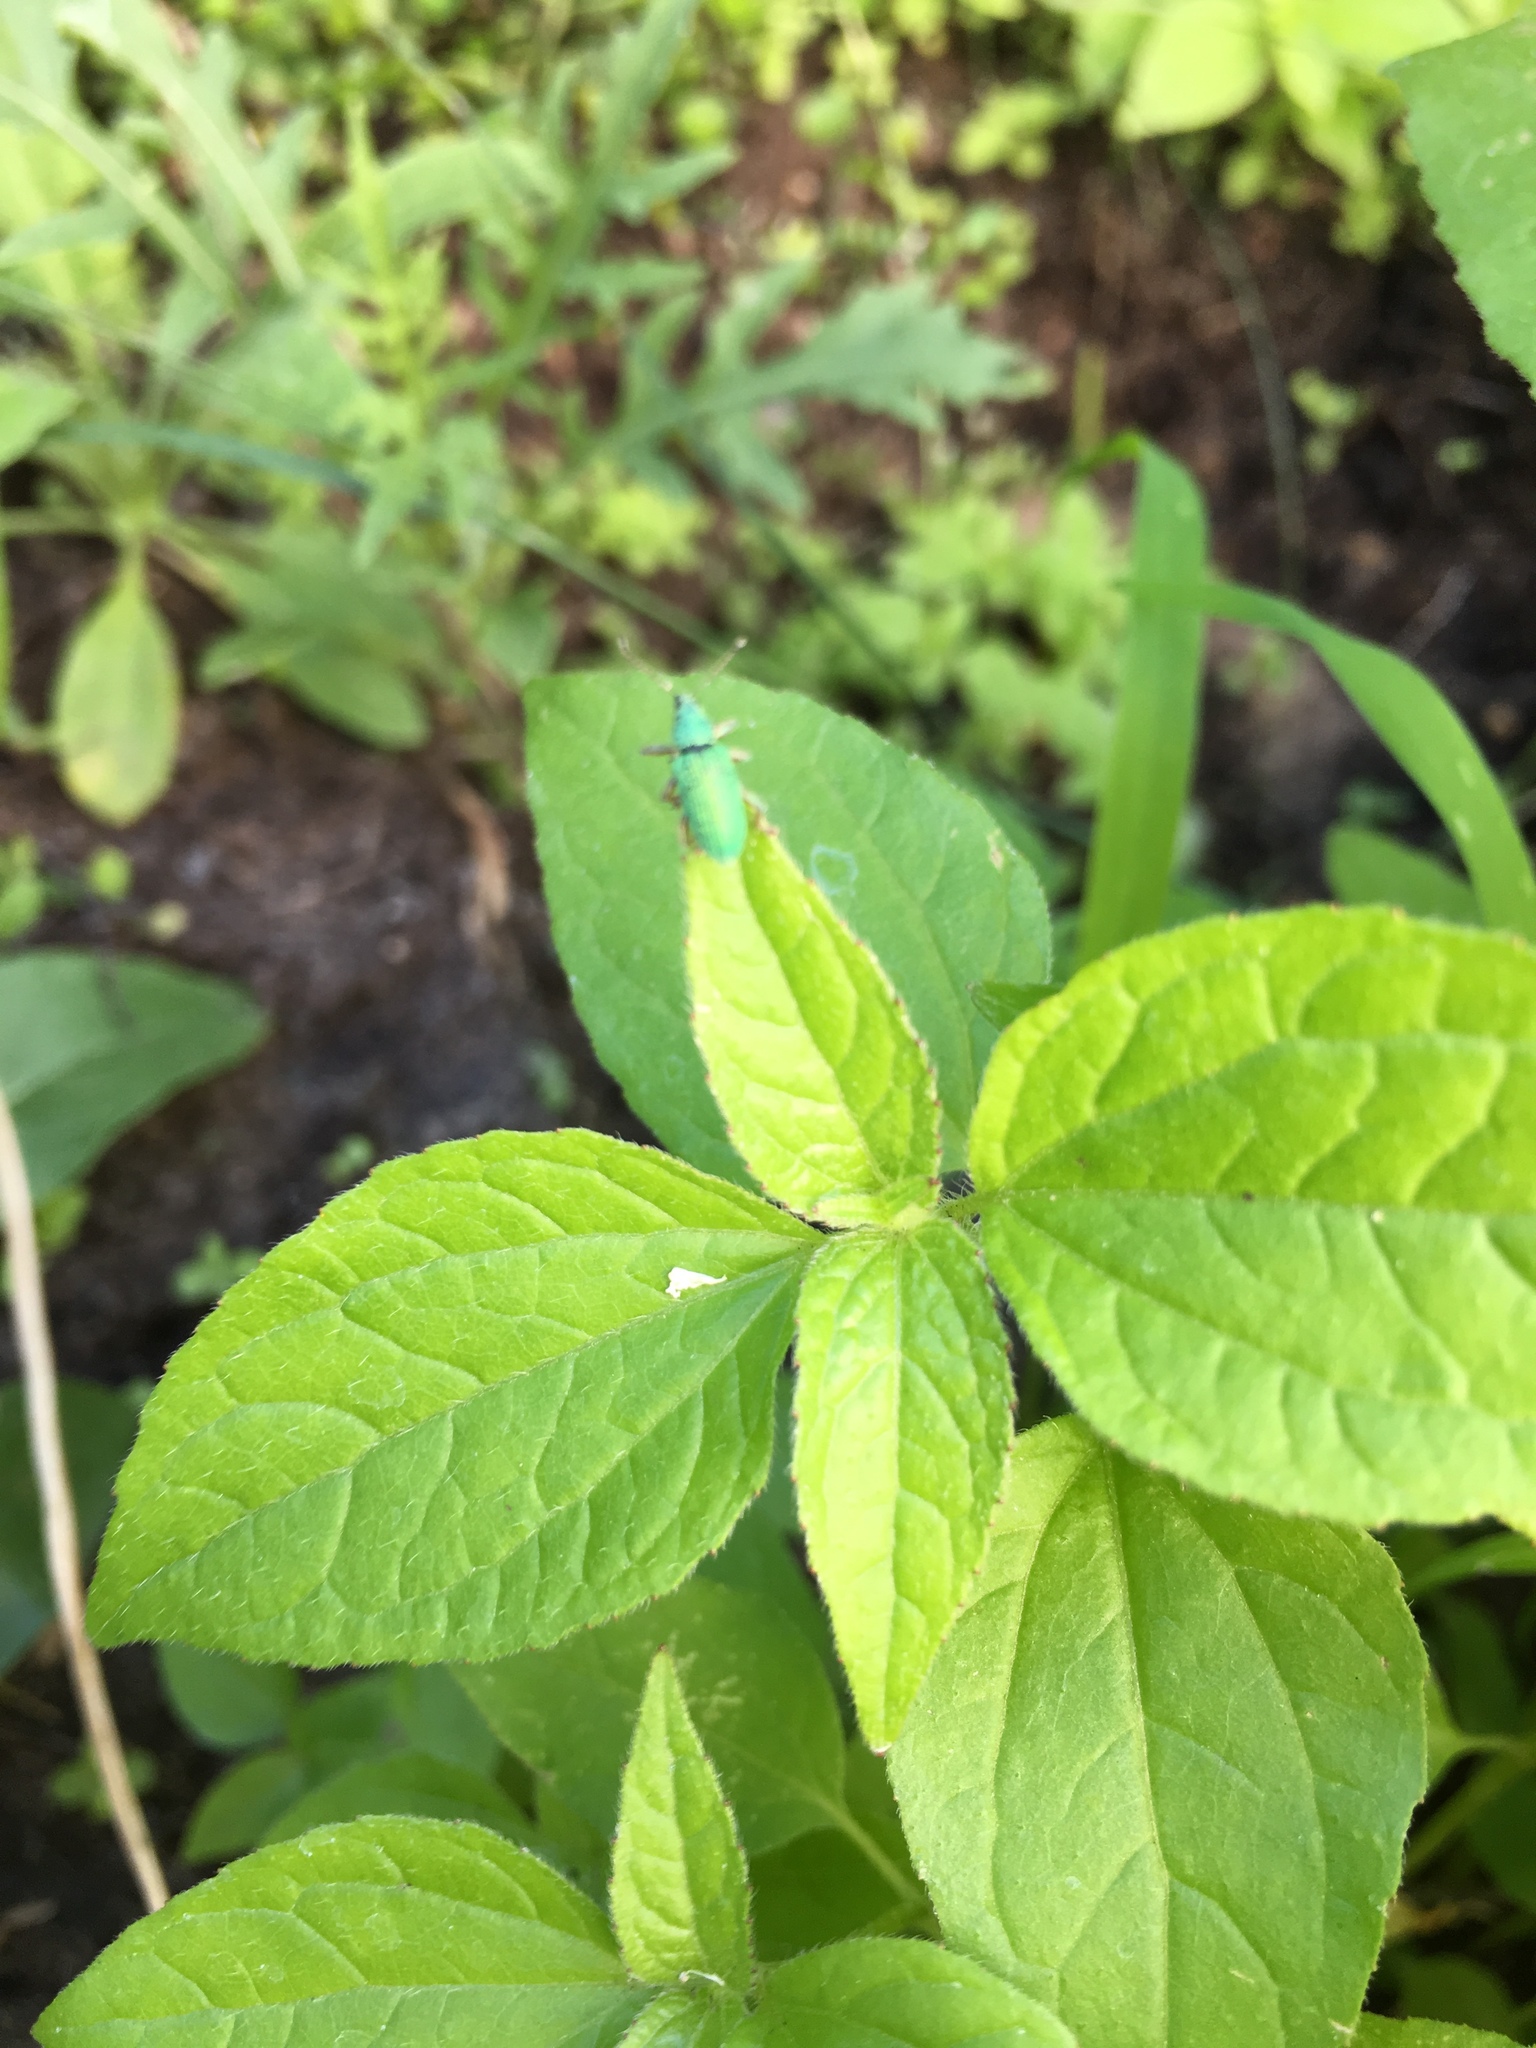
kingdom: Animalia
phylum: Arthropoda
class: Insecta
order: Coleoptera
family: Curculionidae
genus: Polydrusus
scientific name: Polydrusus formosus
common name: Weevil
